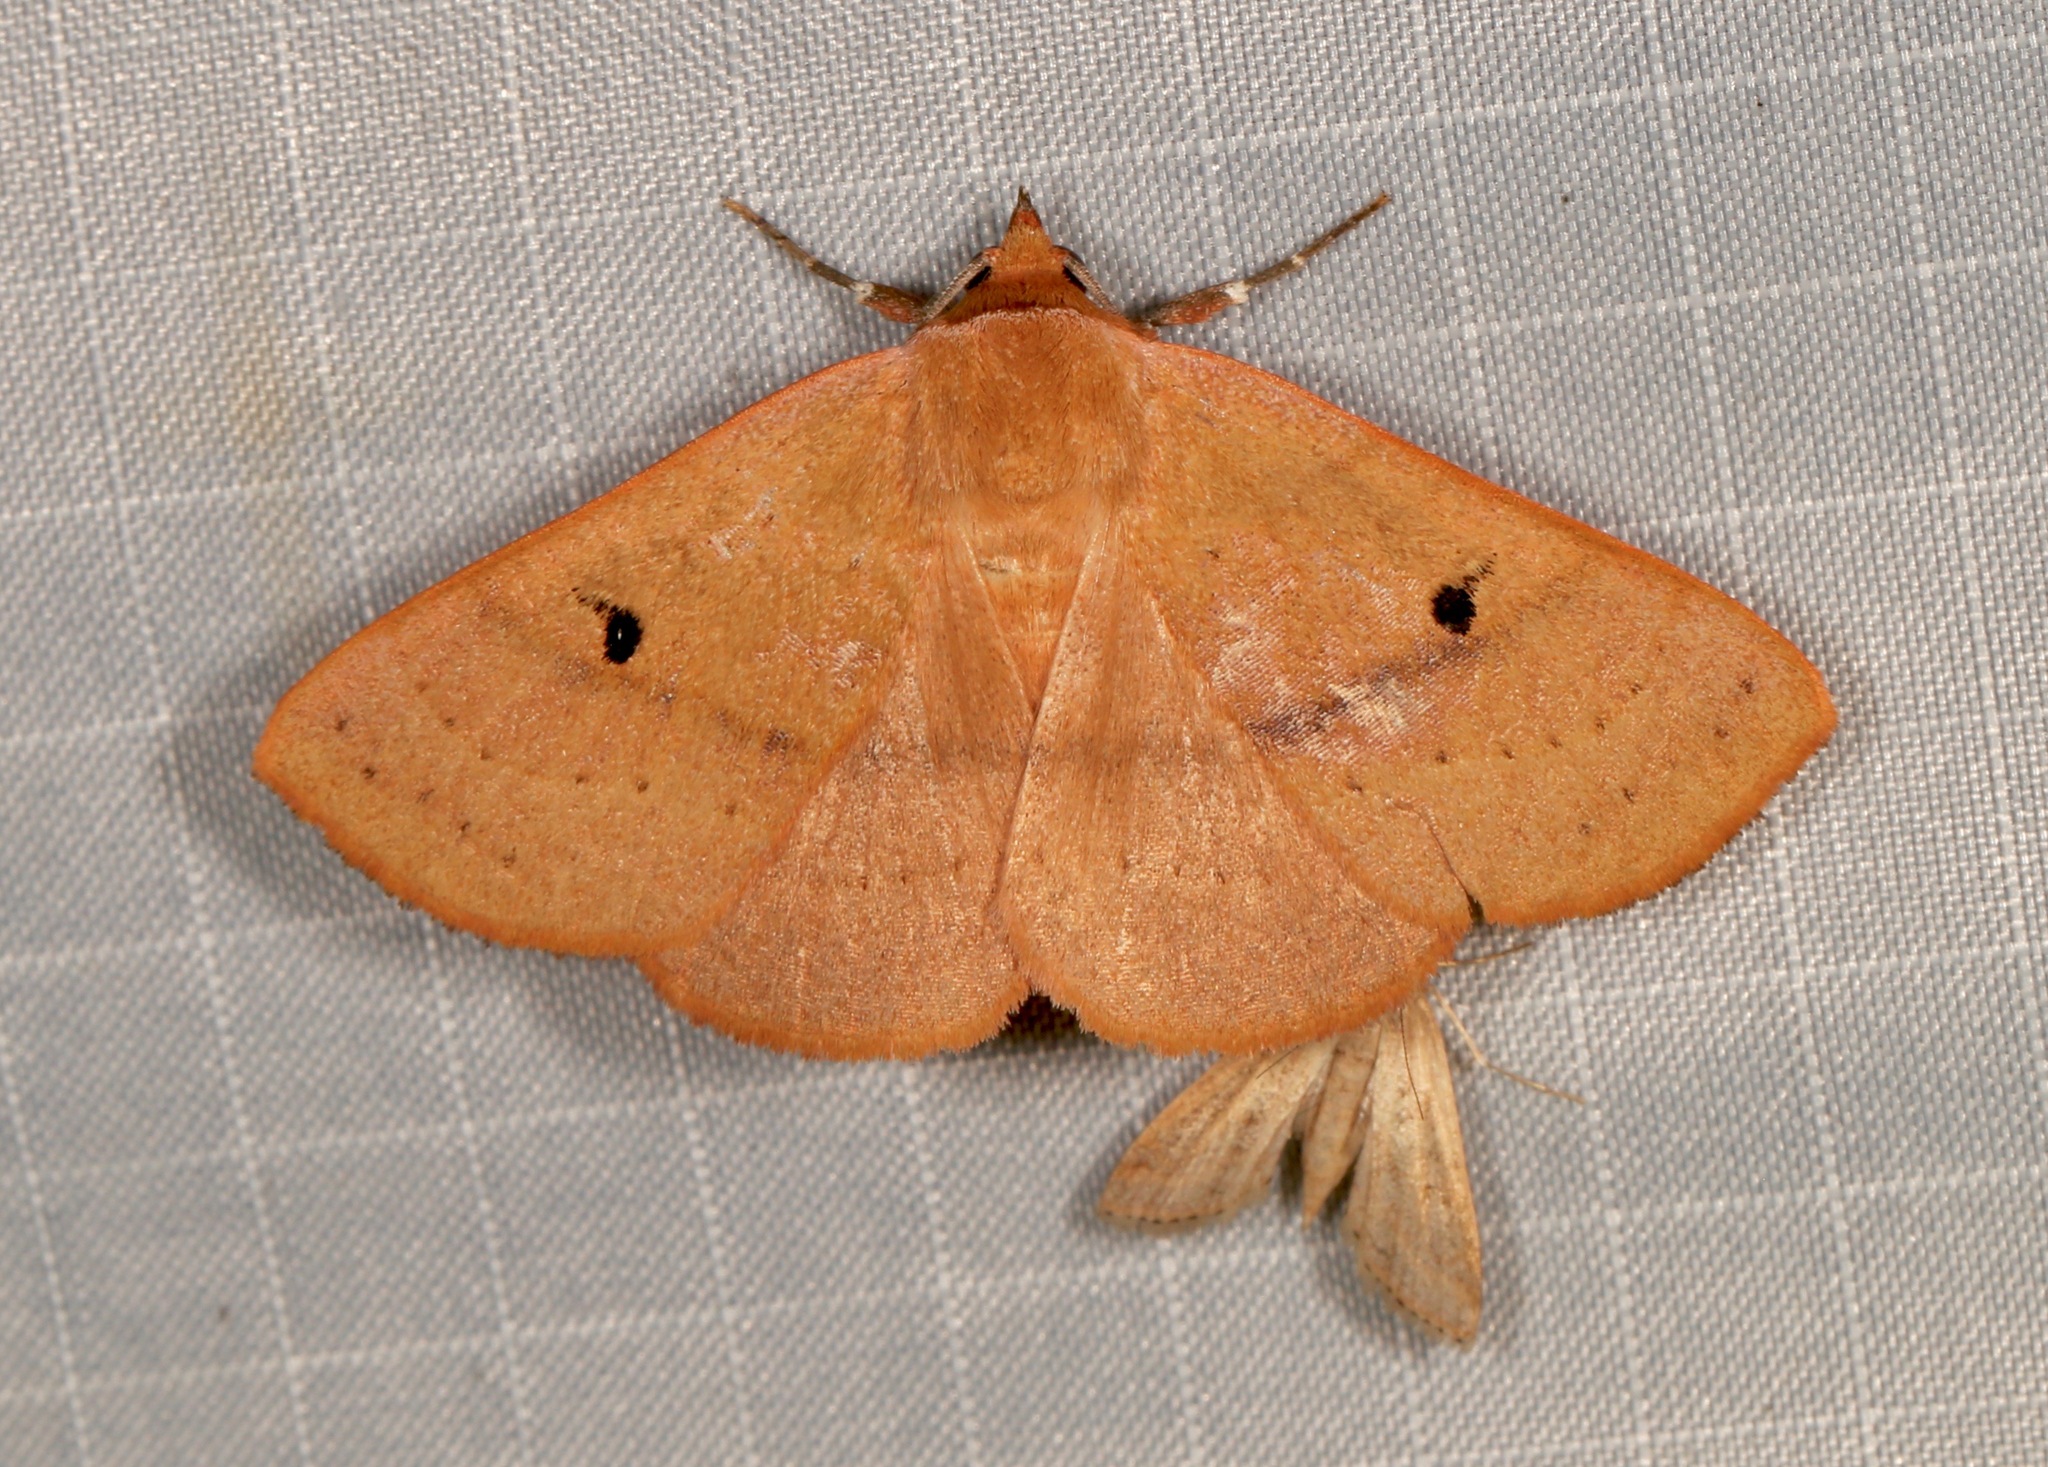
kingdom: Animalia
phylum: Arthropoda
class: Insecta
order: Lepidoptera
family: Erebidae
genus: Panopoda
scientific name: Panopoda repanda
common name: Orange panopoda
